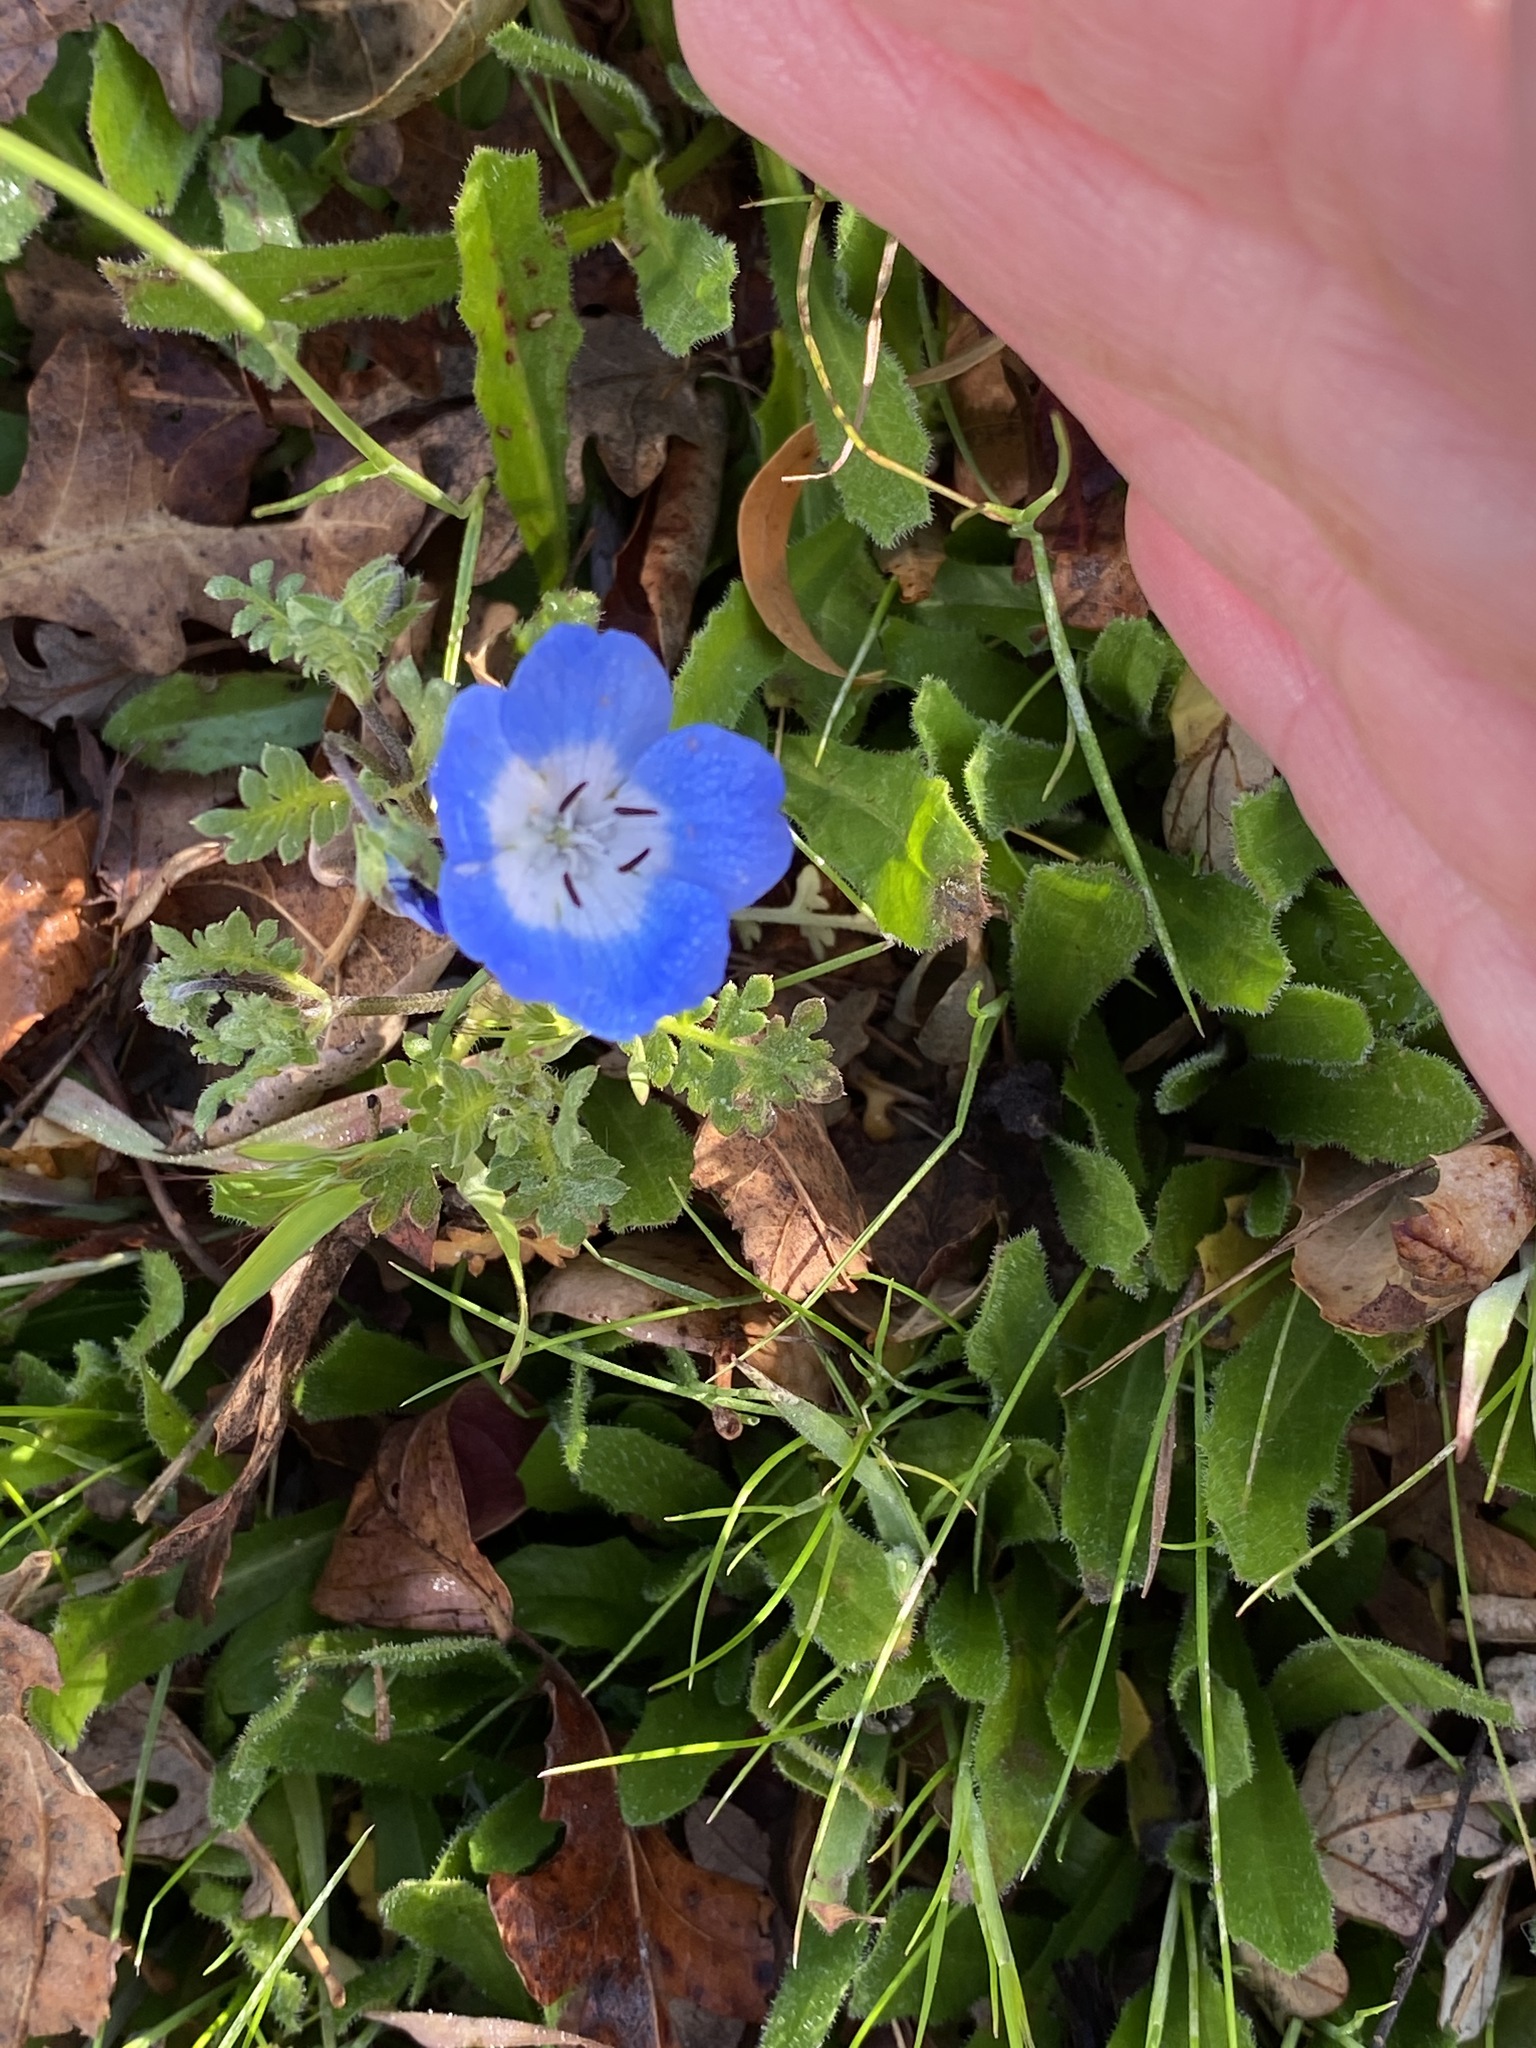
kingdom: Plantae
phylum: Tracheophyta
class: Magnoliopsida
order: Boraginales
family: Hydrophyllaceae
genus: Nemophila
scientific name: Nemophila menziesii
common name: Baby's-blue-eyes
